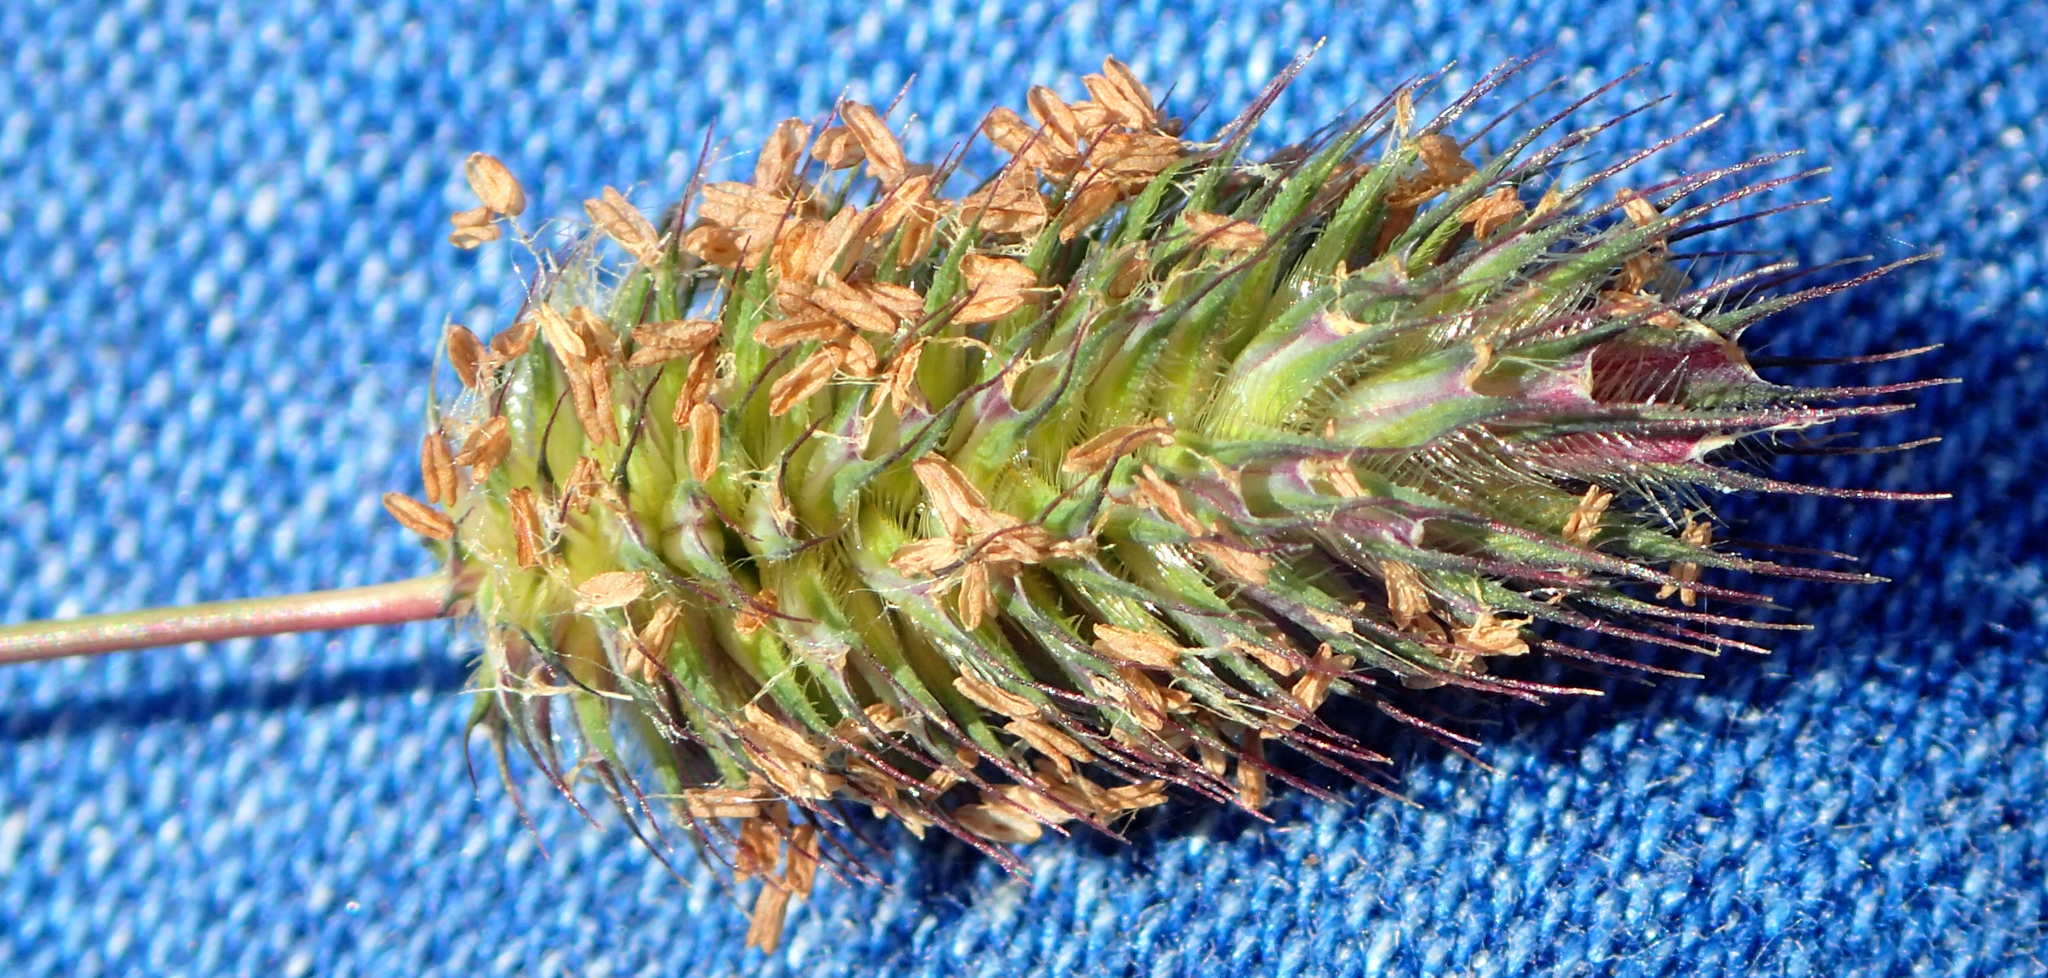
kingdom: Plantae
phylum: Tracheophyta
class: Liliopsida
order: Poales
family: Poaceae
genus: Phleum
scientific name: Phleum alpinum
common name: Alpine cat's-tail
